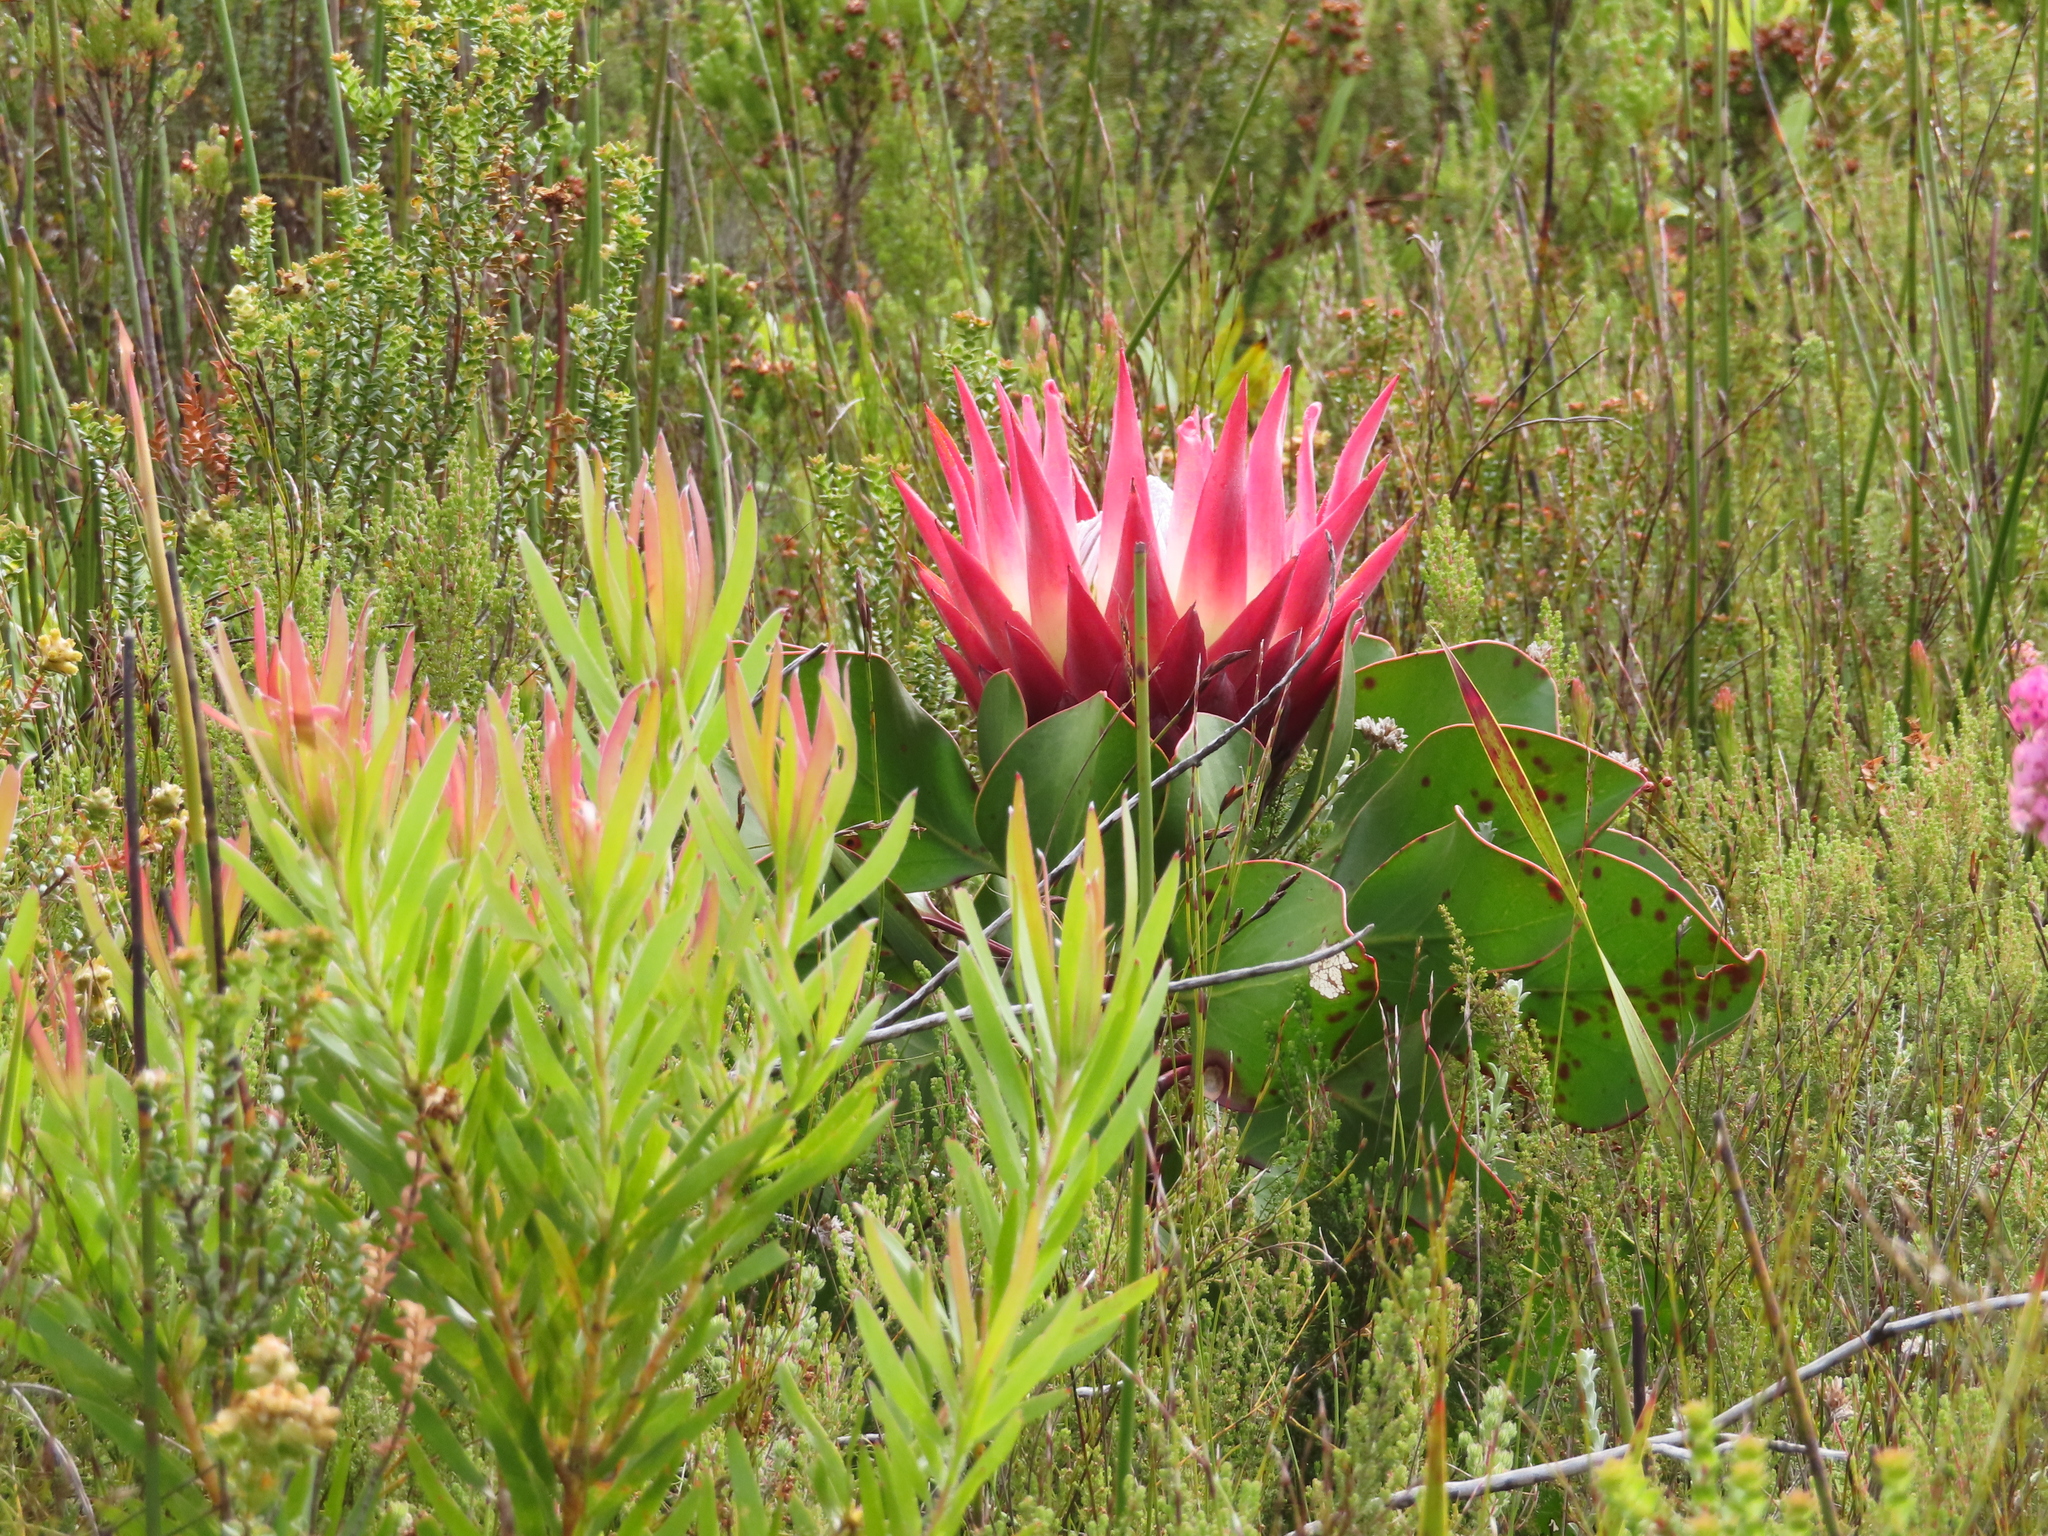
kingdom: Plantae
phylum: Tracheophyta
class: Magnoliopsida
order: Proteales
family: Proteaceae
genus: Protea
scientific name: Protea cynaroides
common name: King protea
